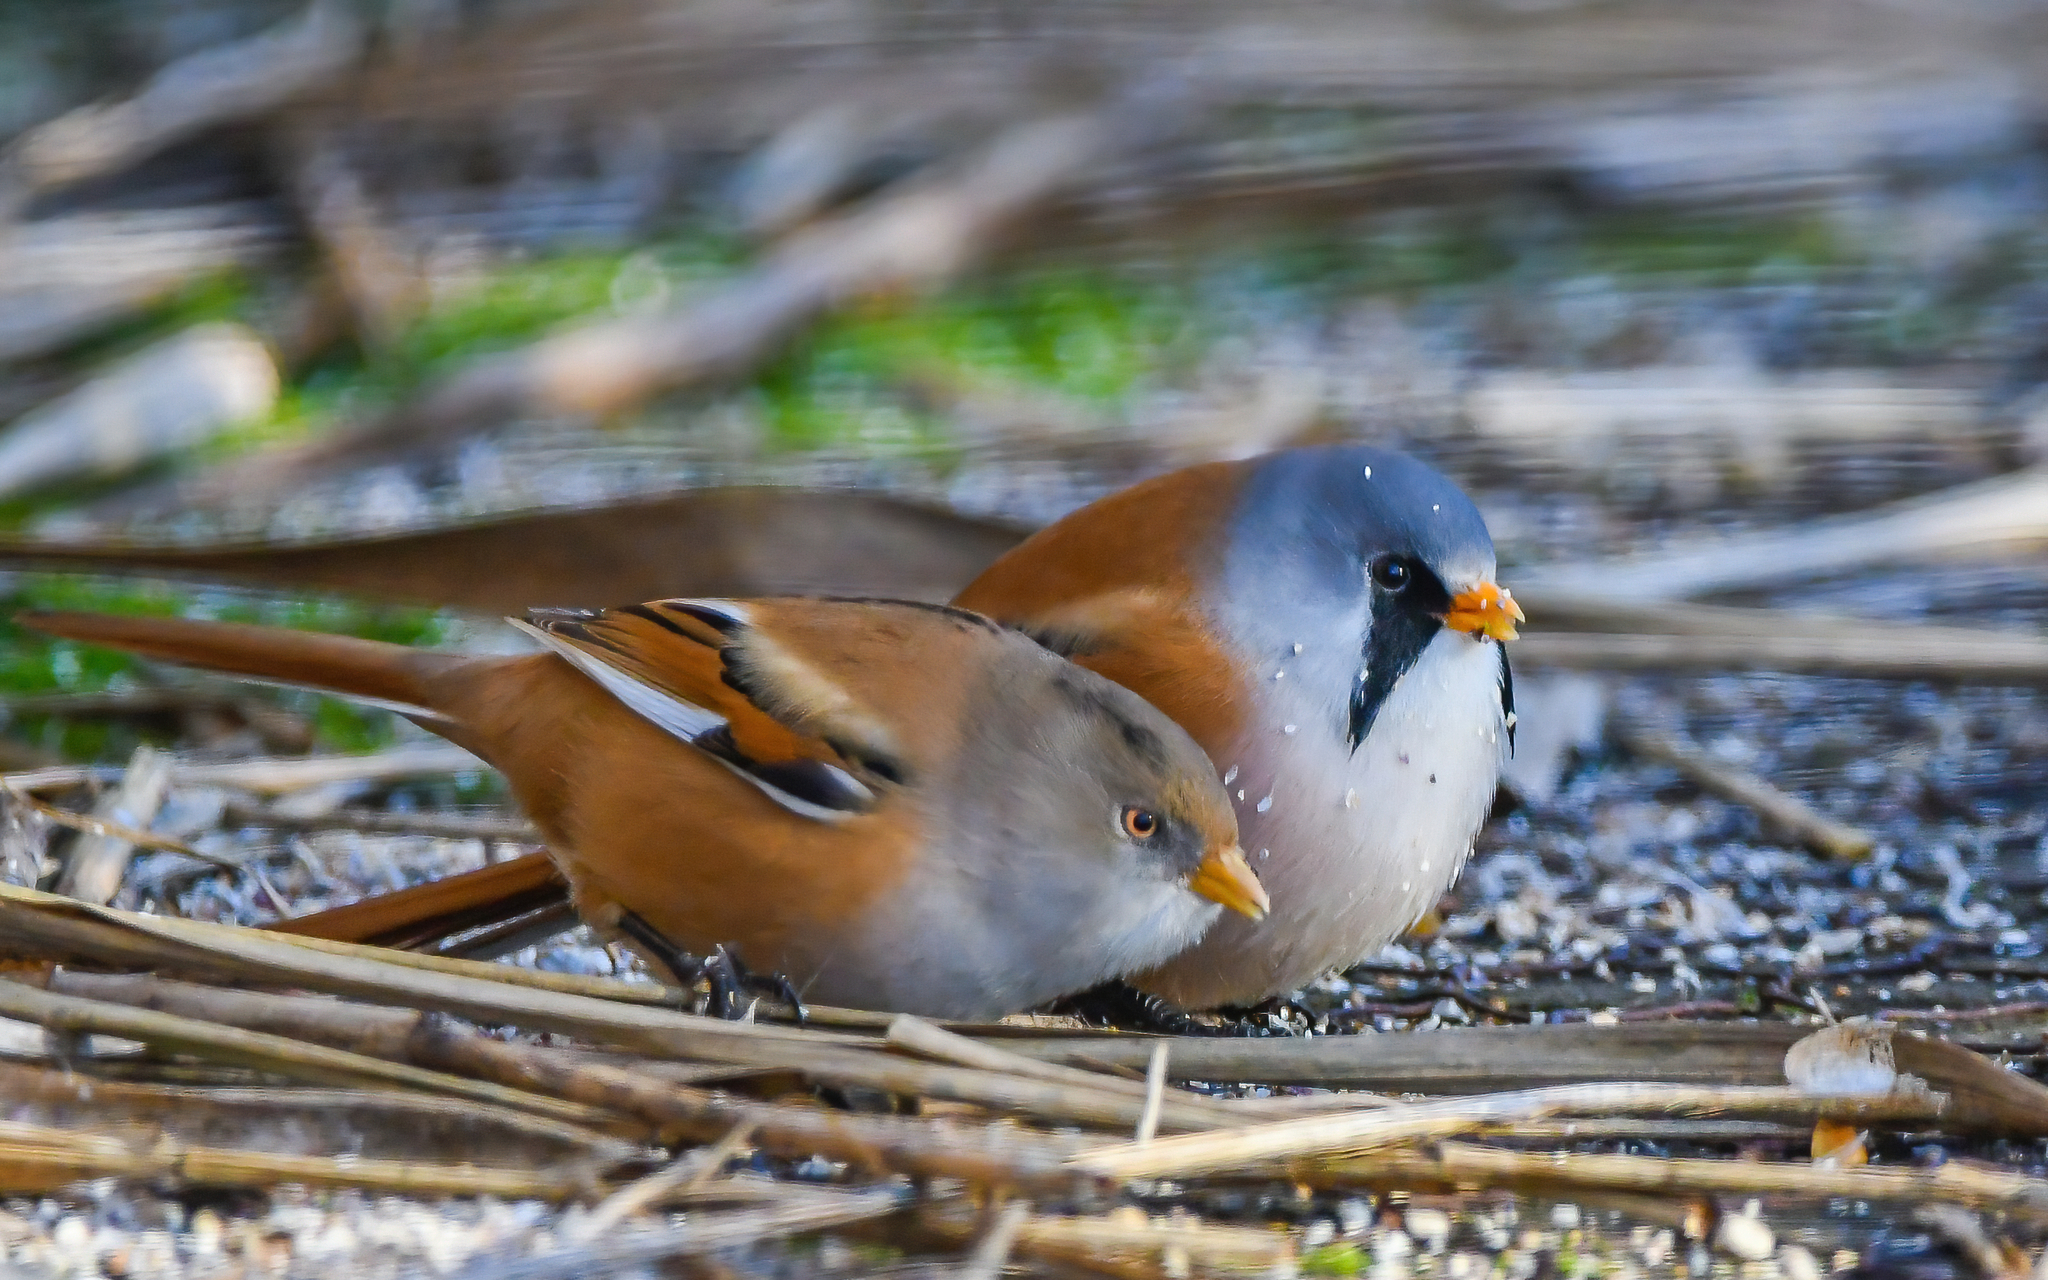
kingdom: Animalia
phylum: Chordata
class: Aves
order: Passeriformes
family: Panuridae
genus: Panurus
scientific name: Panurus biarmicus
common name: Bearded reedling
